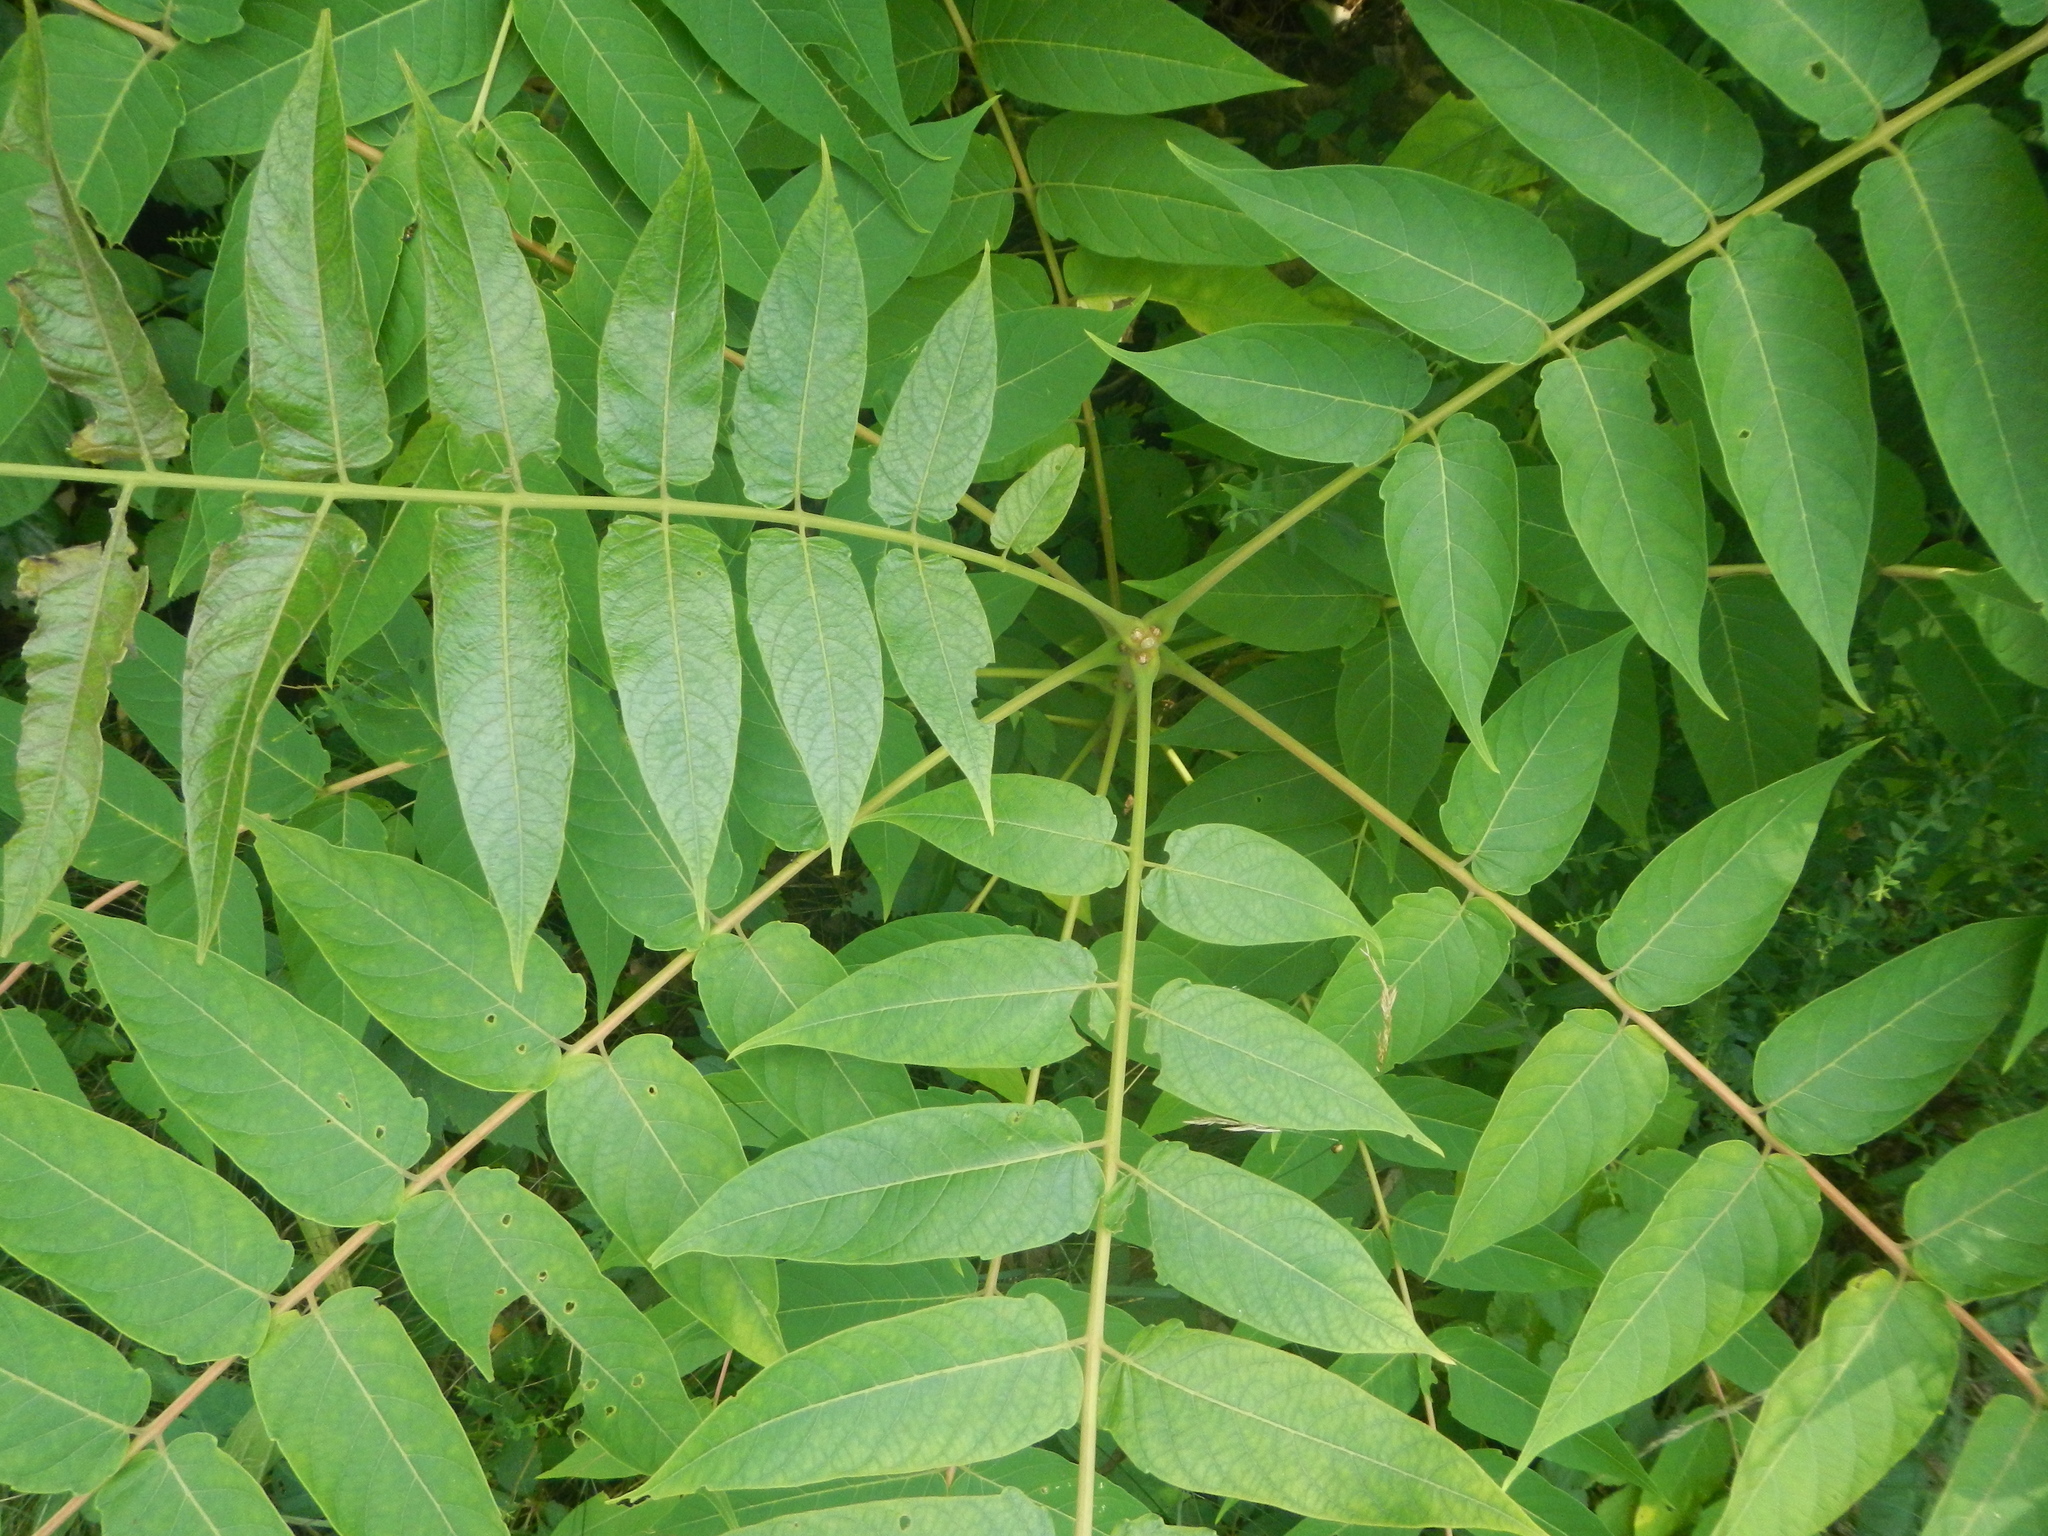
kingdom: Plantae
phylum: Tracheophyta
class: Magnoliopsida
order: Sapindales
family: Simaroubaceae
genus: Ailanthus
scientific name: Ailanthus altissima
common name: Tree-of-heaven
